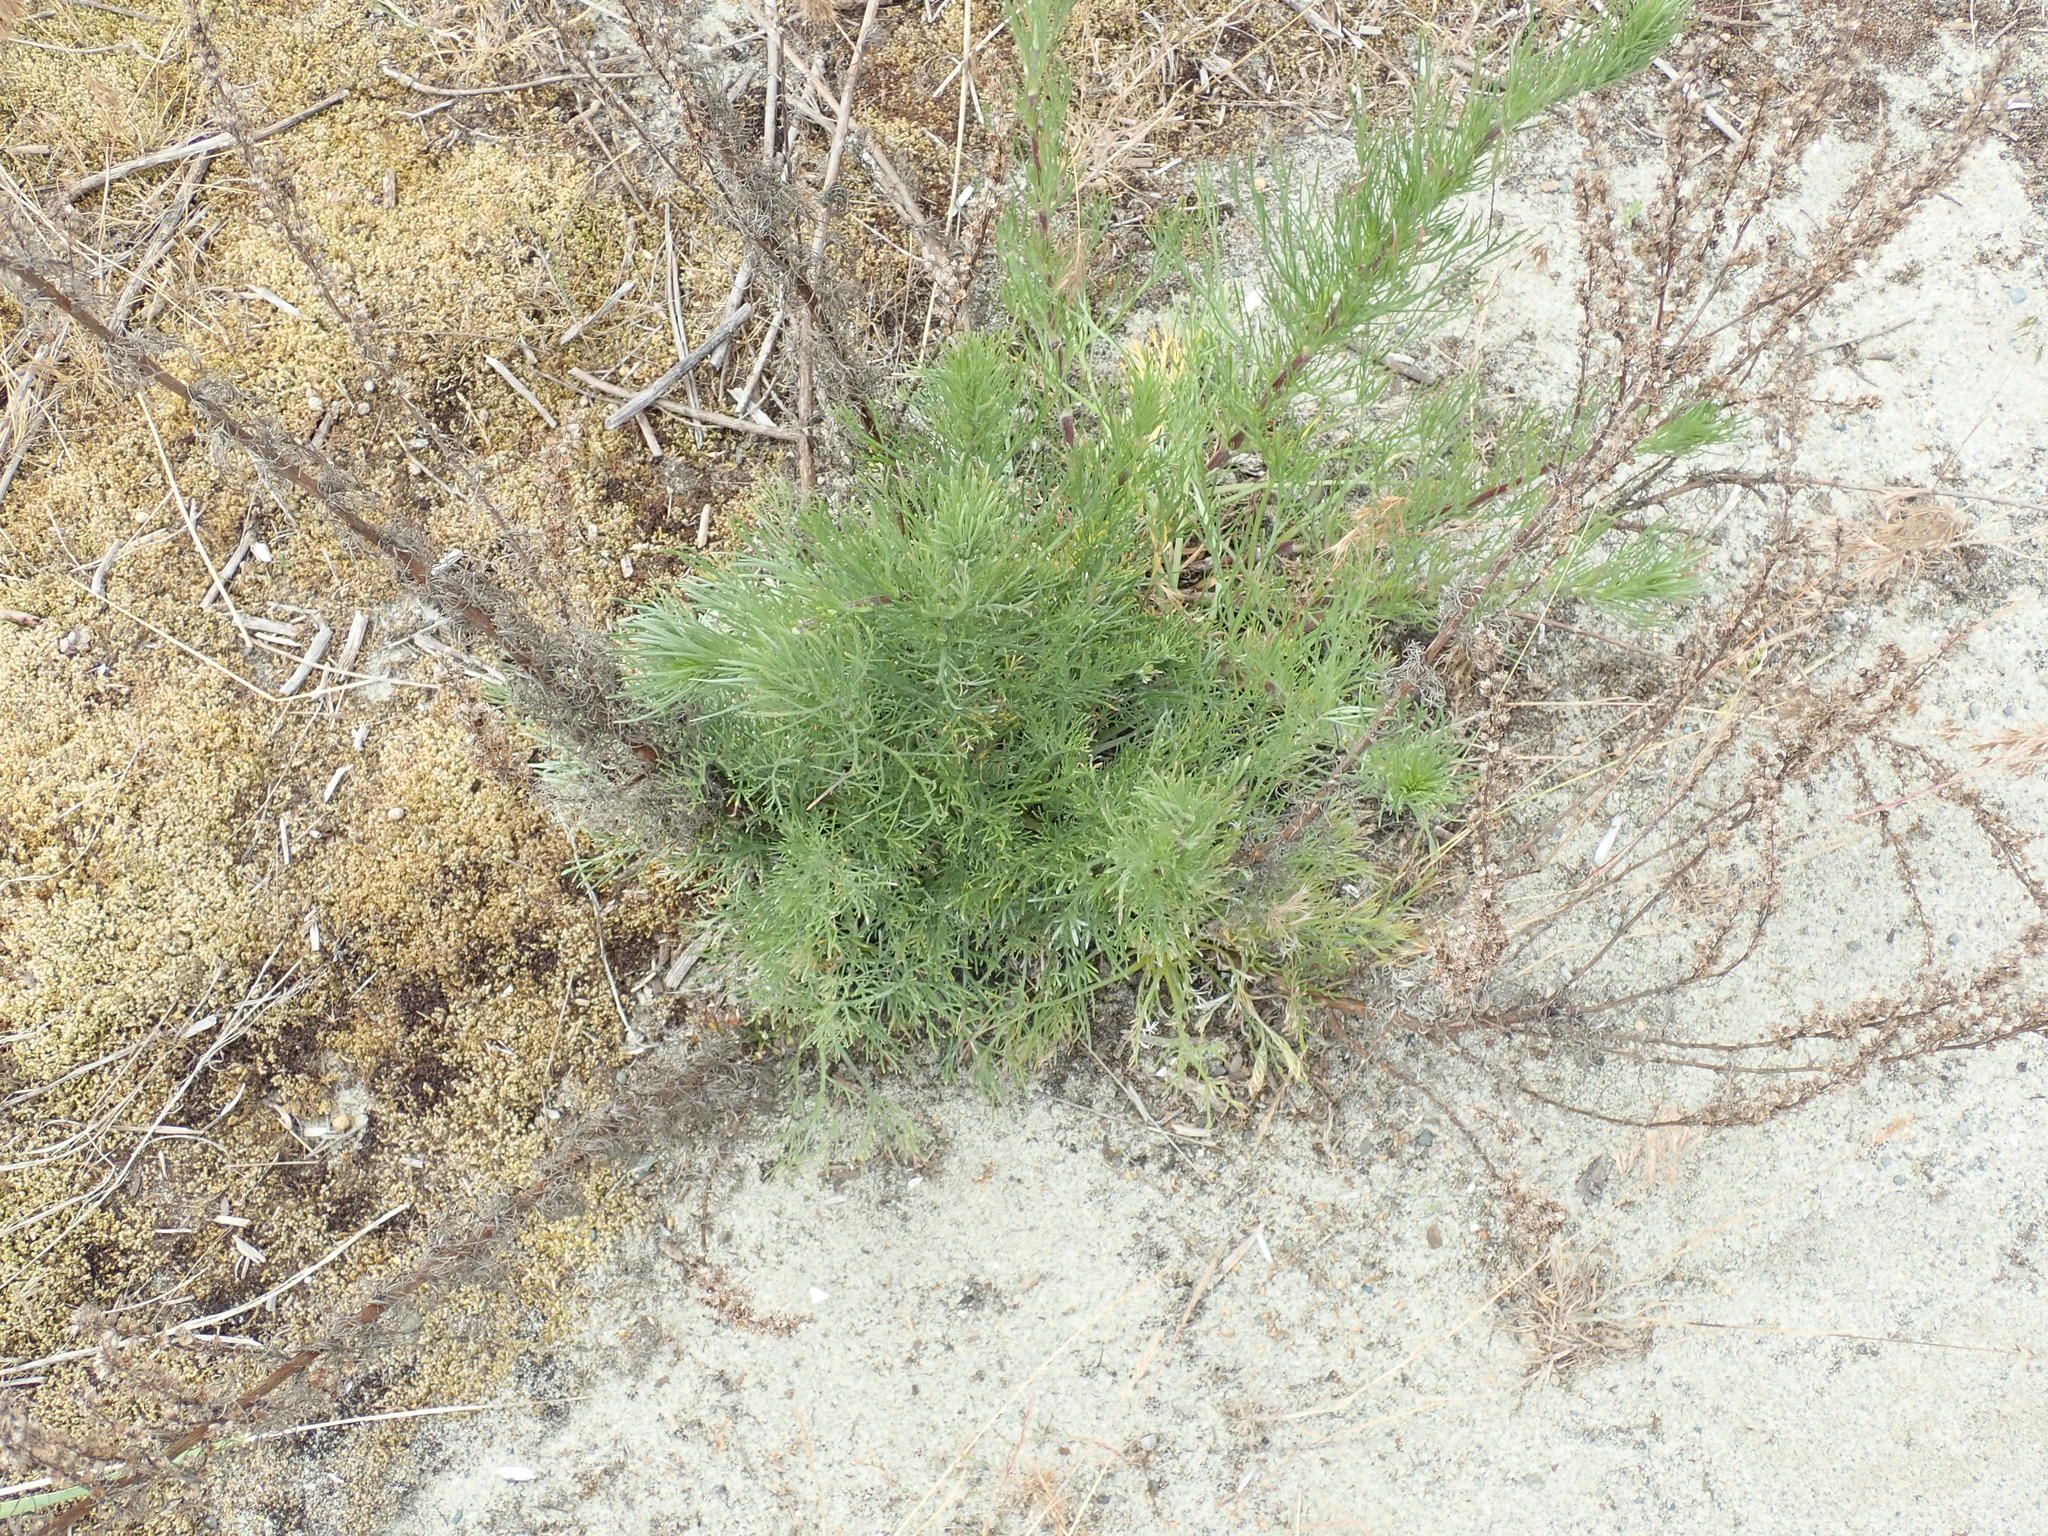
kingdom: Plantae
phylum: Tracheophyta
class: Magnoliopsida
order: Asterales
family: Asteraceae
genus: Artemisia
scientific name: Artemisia campestris
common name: Field wormwood
